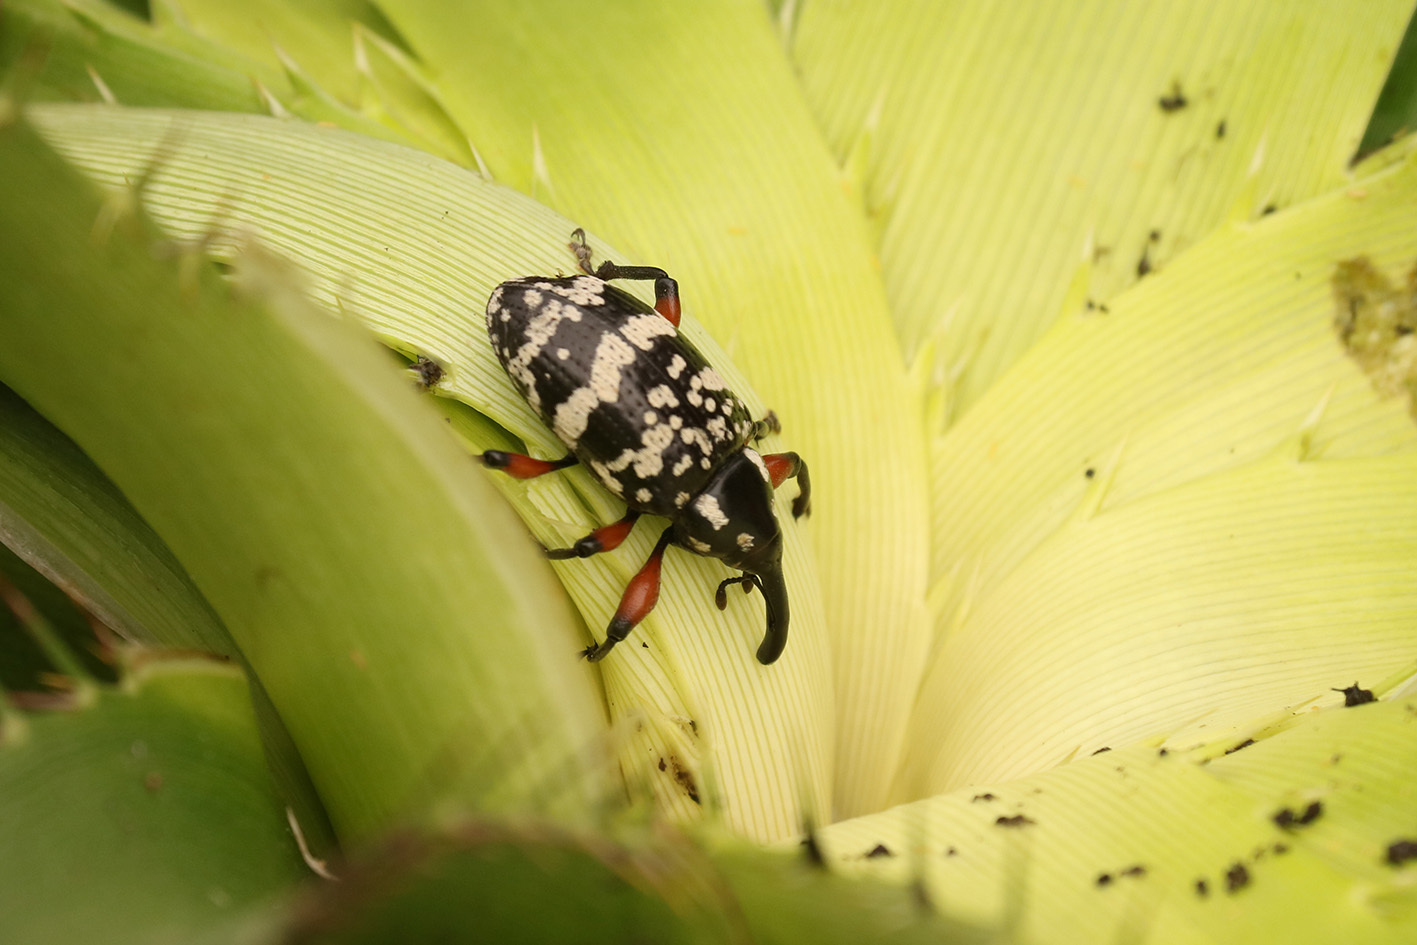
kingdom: Animalia
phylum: Arthropoda
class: Insecta
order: Coleoptera
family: Curculionidae
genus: Heilipodus
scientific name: Heilipodus erythropus
